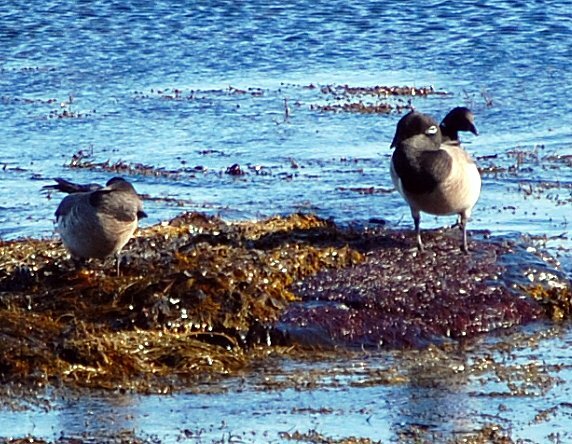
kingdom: Animalia
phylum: Chordata
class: Aves
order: Anseriformes
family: Anatidae
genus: Branta
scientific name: Branta bernicla
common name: Brant goose
